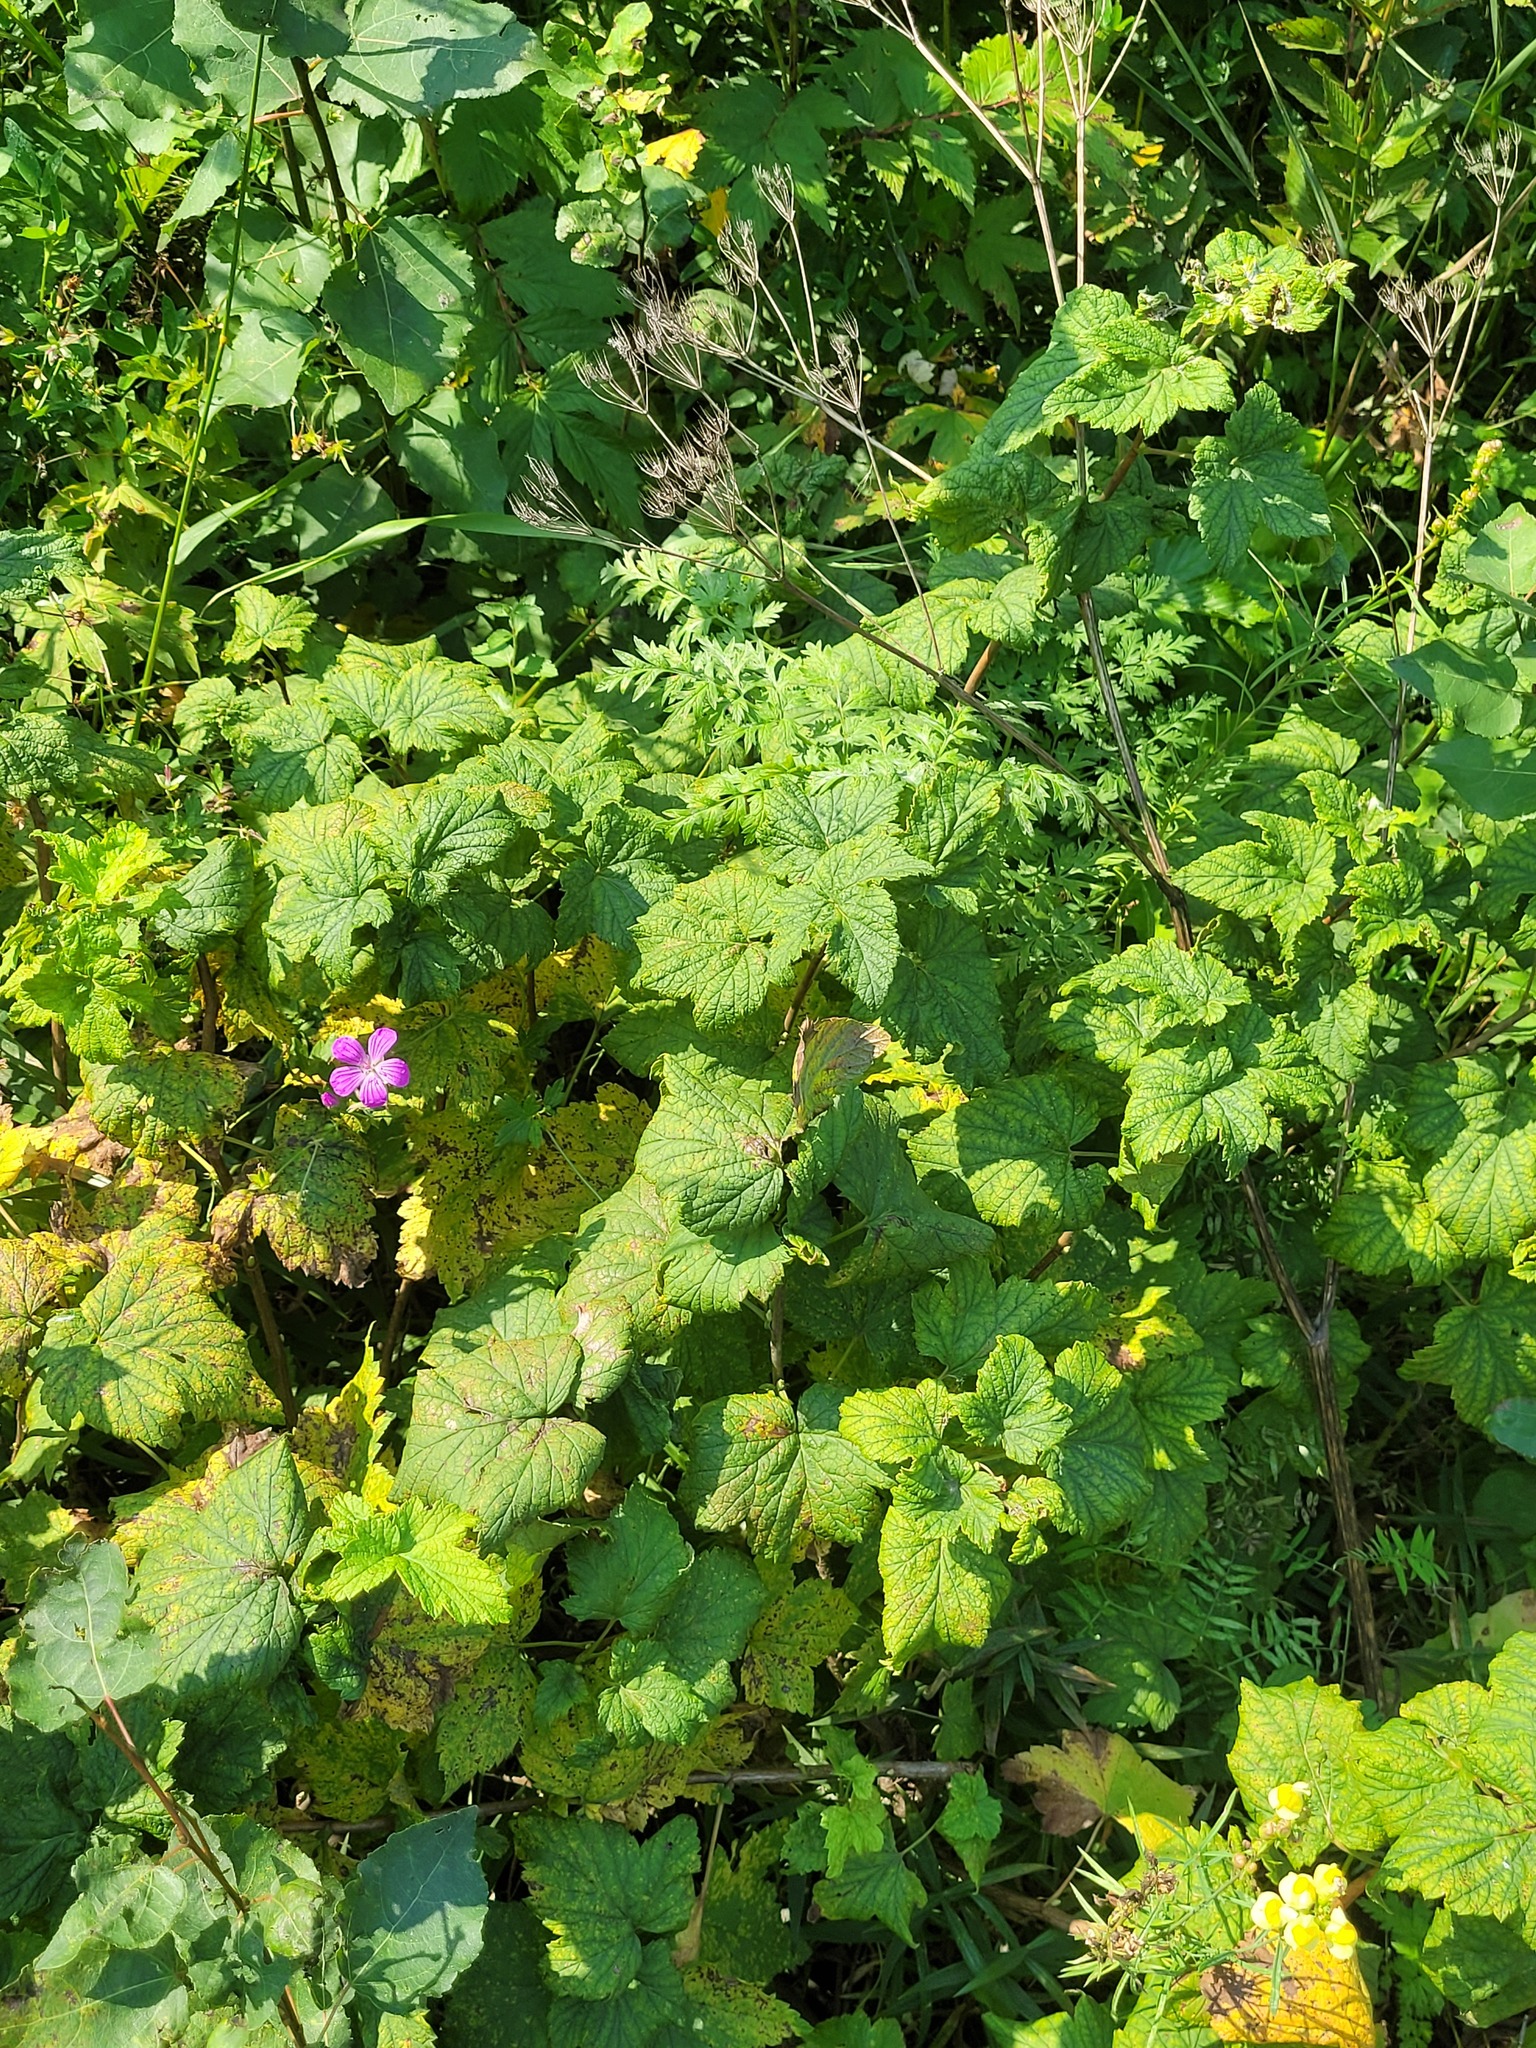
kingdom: Plantae
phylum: Tracheophyta
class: Magnoliopsida
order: Saxifragales
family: Grossulariaceae
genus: Ribes
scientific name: Ribes nigrum
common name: Black currant
